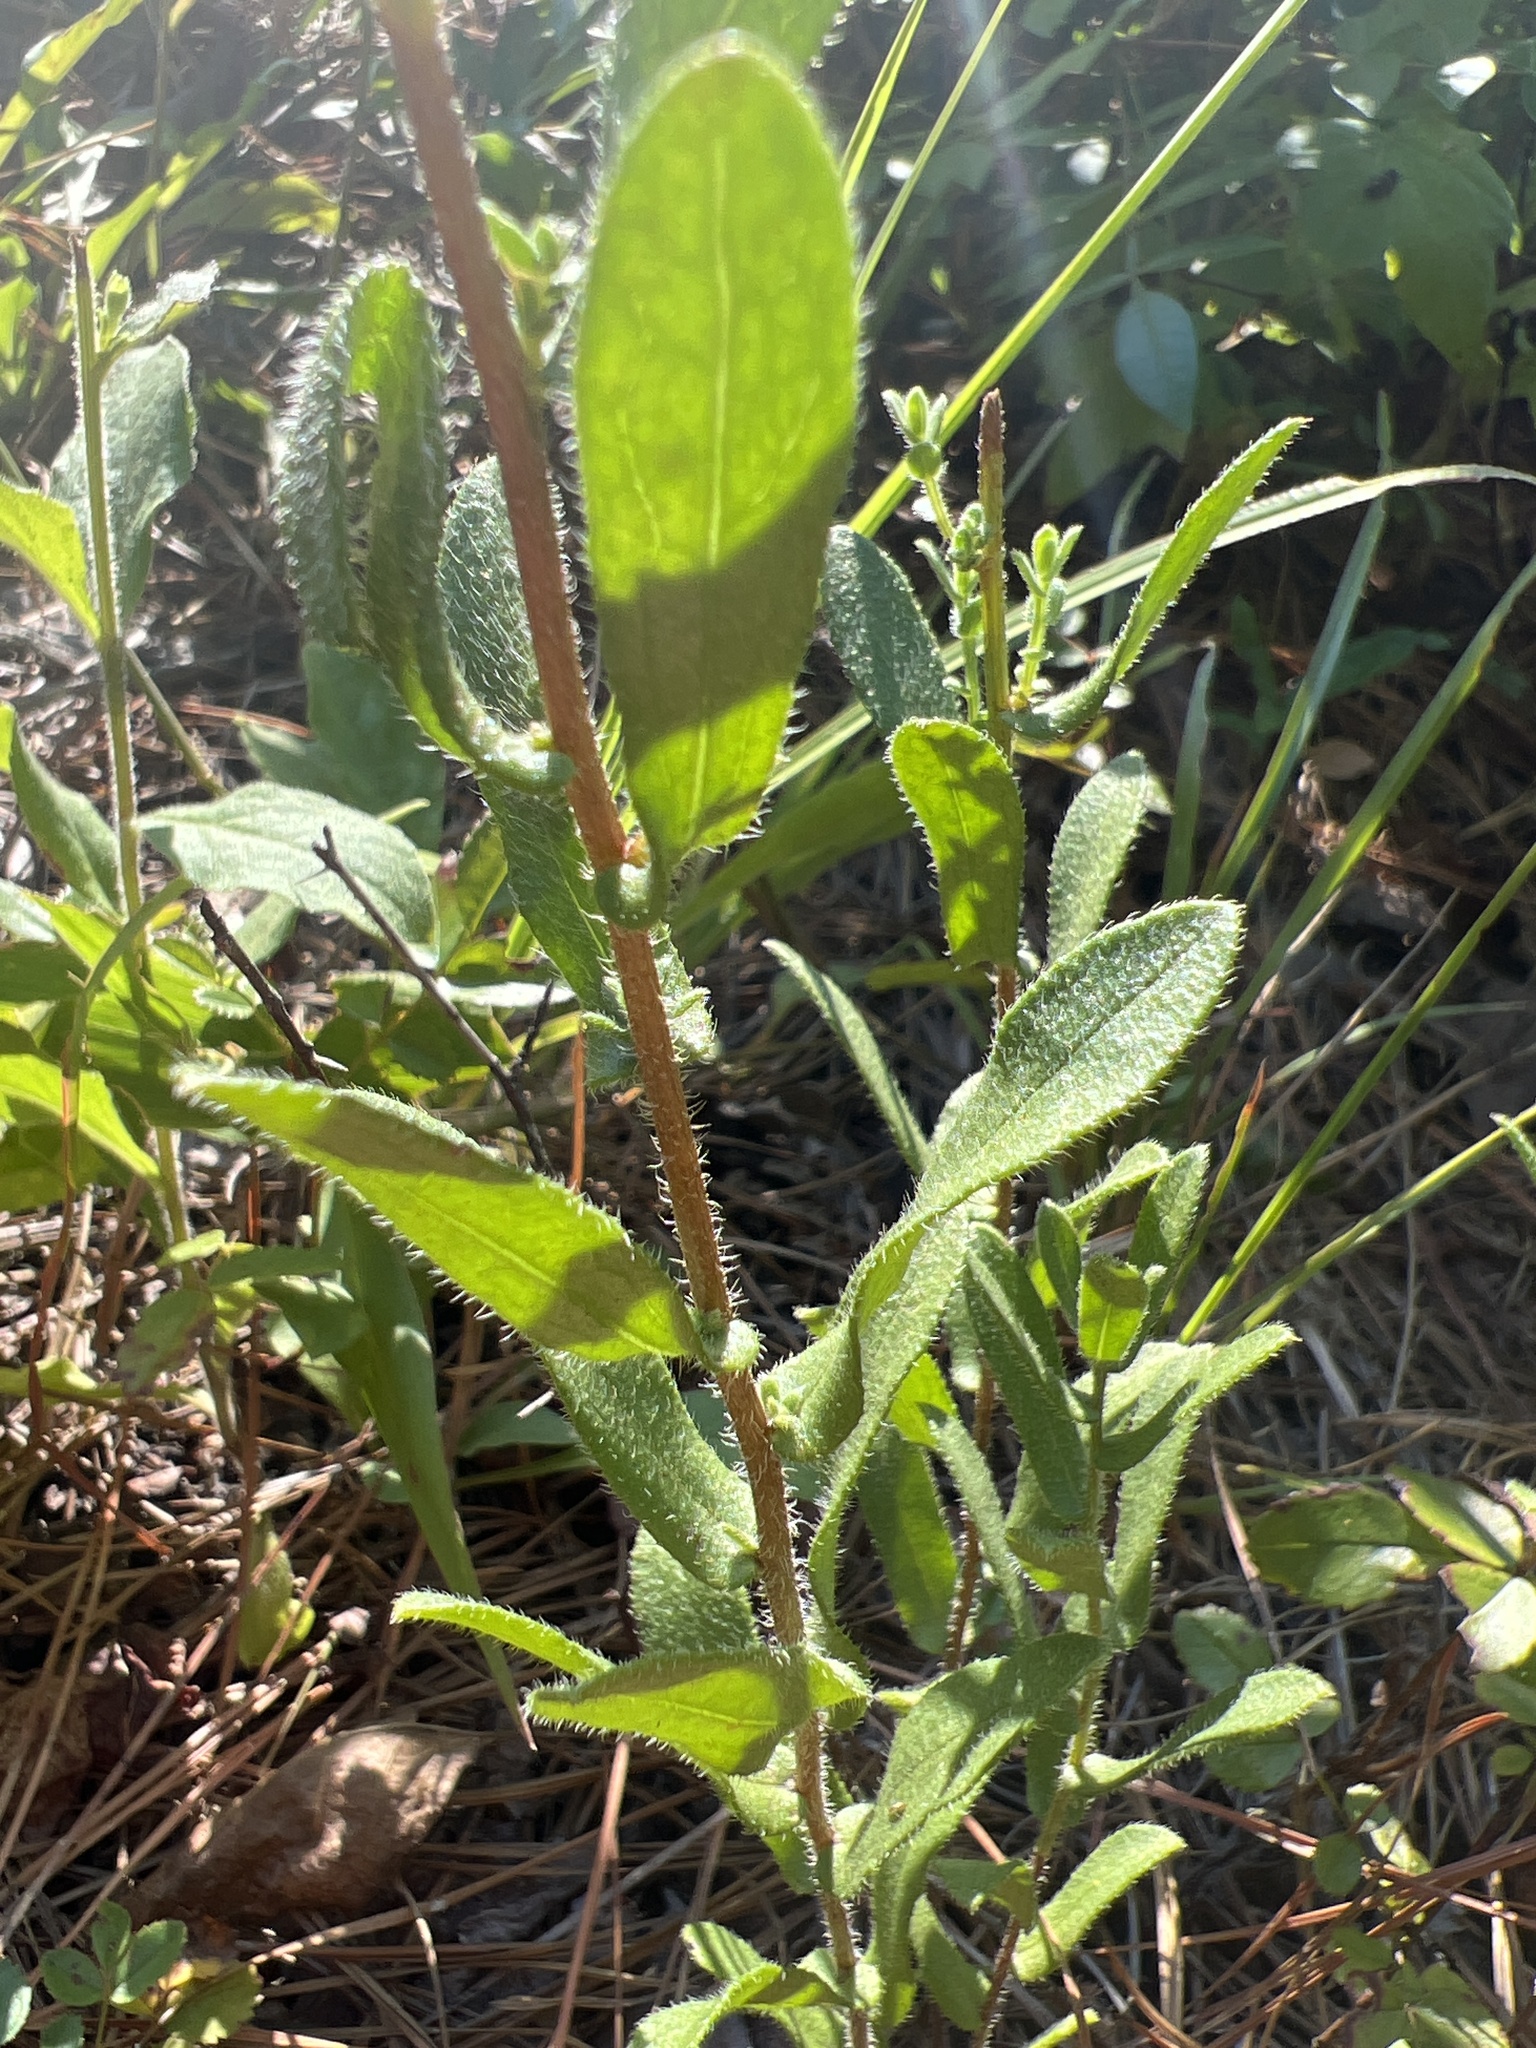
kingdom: Plantae
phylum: Tracheophyta
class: Magnoliopsida
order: Asterales
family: Asteraceae
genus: Symphyotrichum
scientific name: Symphyotrichum grandiflorum
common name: Big-head aster
